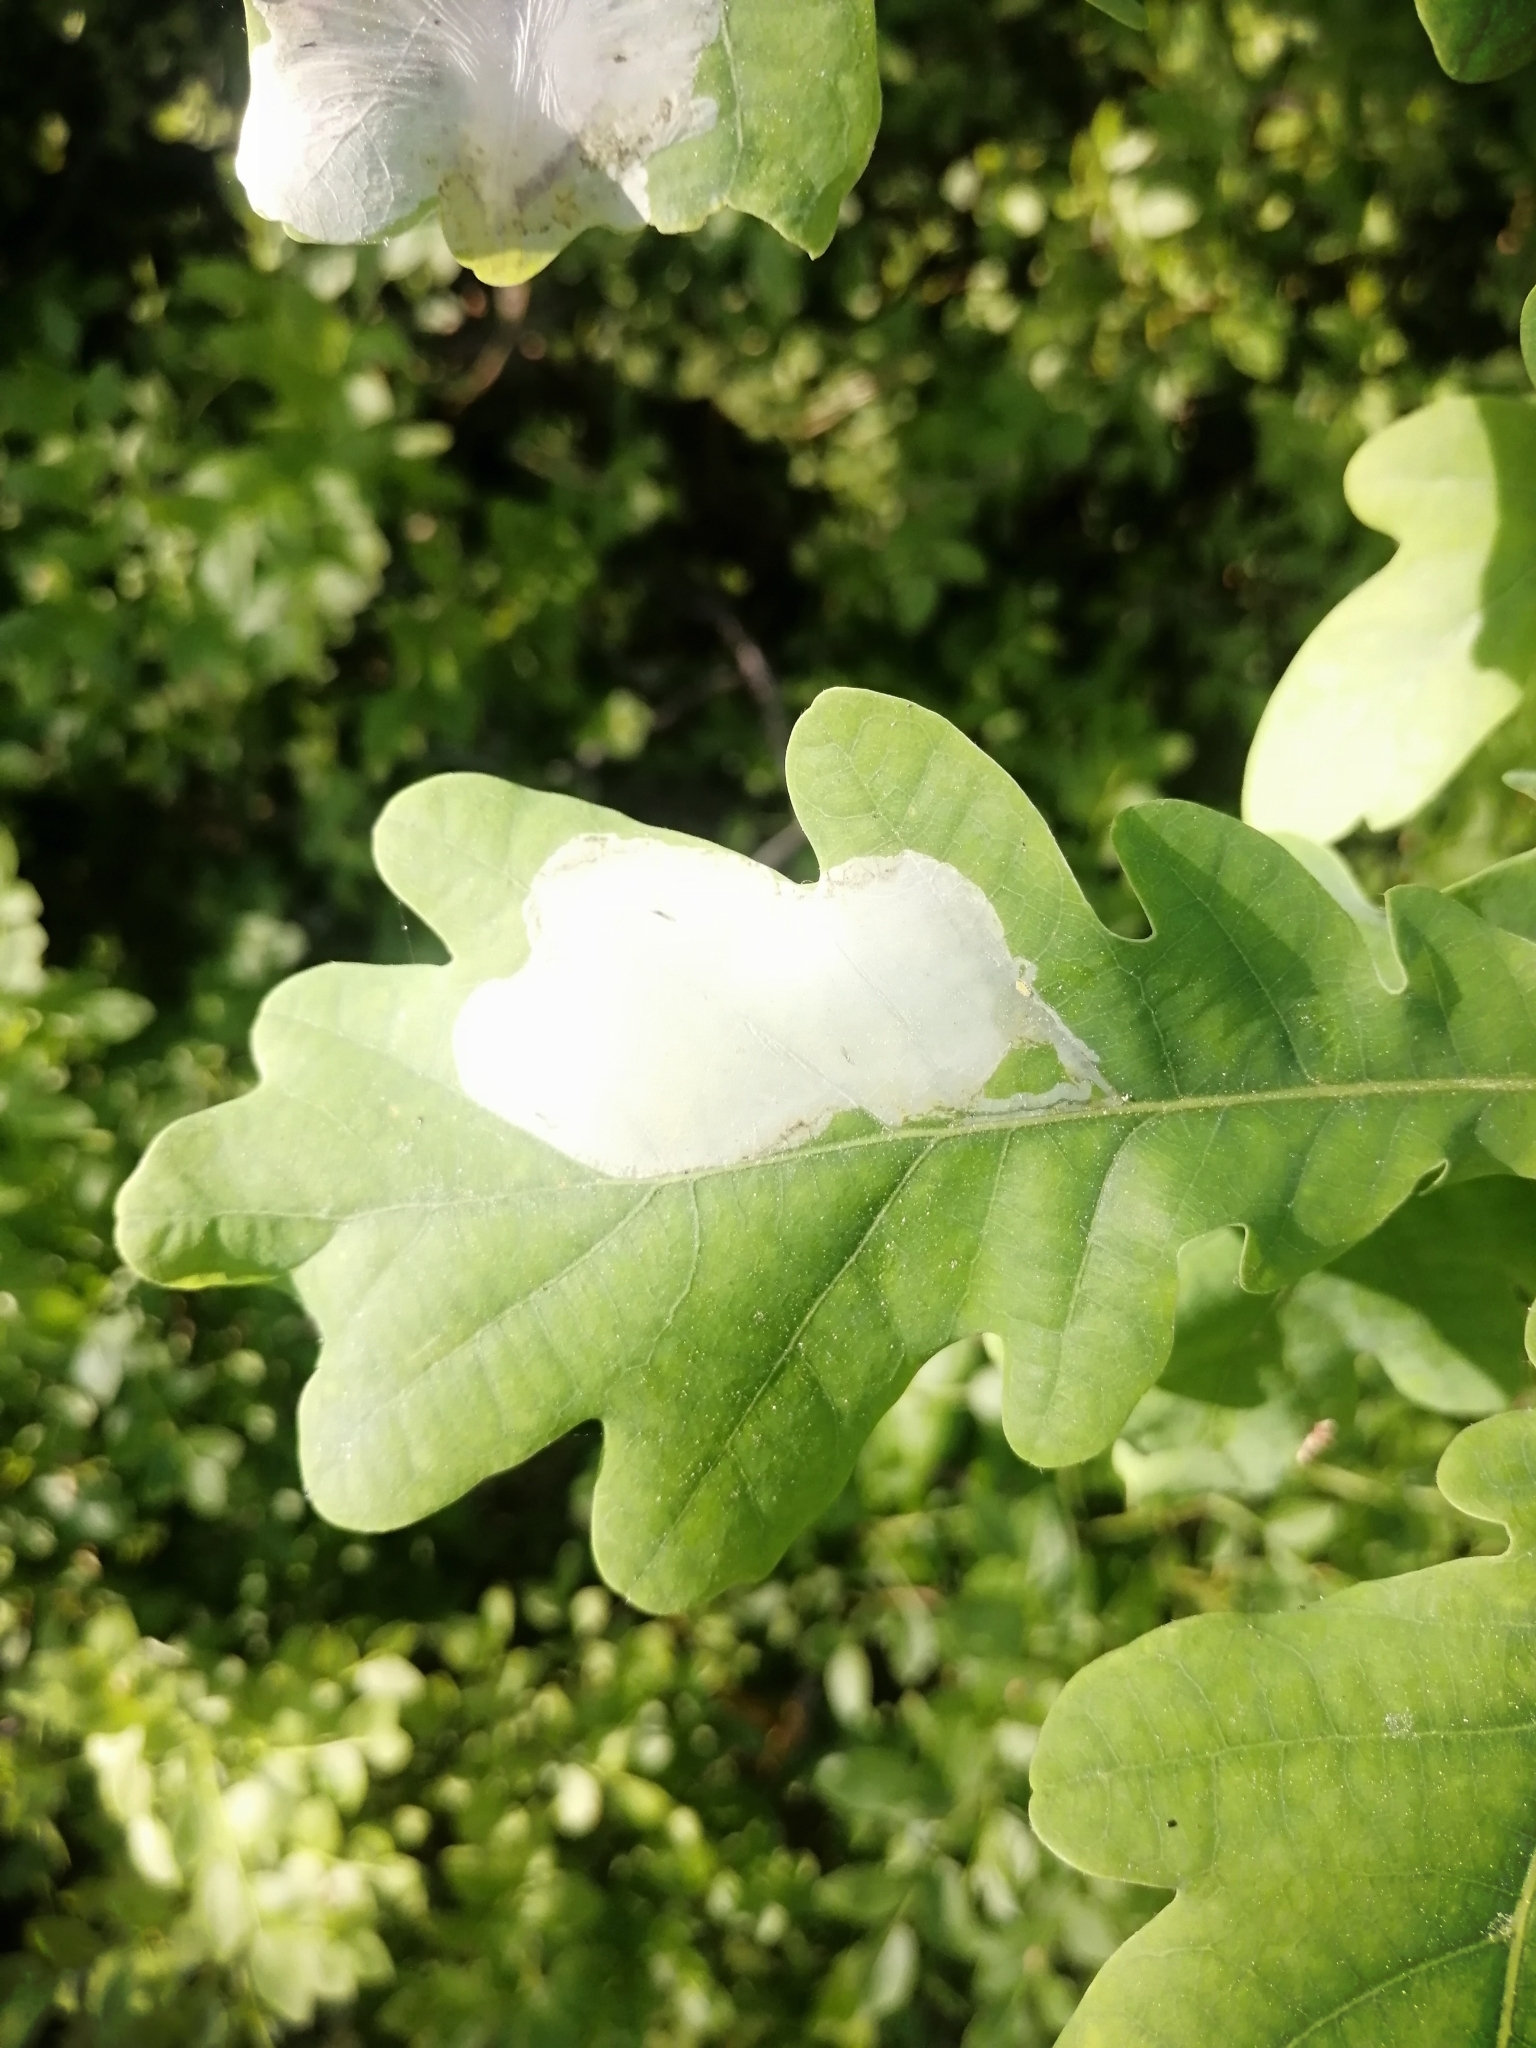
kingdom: Animalia
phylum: Arthropoda
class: Insecta
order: Lepidoptera
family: Gracillariidae
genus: Acrocercops
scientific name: Acrocercops brongniardella
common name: Brown oak slender
